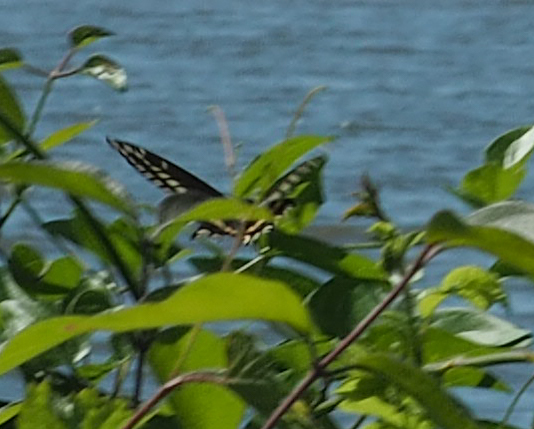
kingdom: Animalia
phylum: Arthropoda
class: Insecta
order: Lepidoptera
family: Papilionidae
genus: Papilio
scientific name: Papilio polyxenes
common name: Black swallowtail
